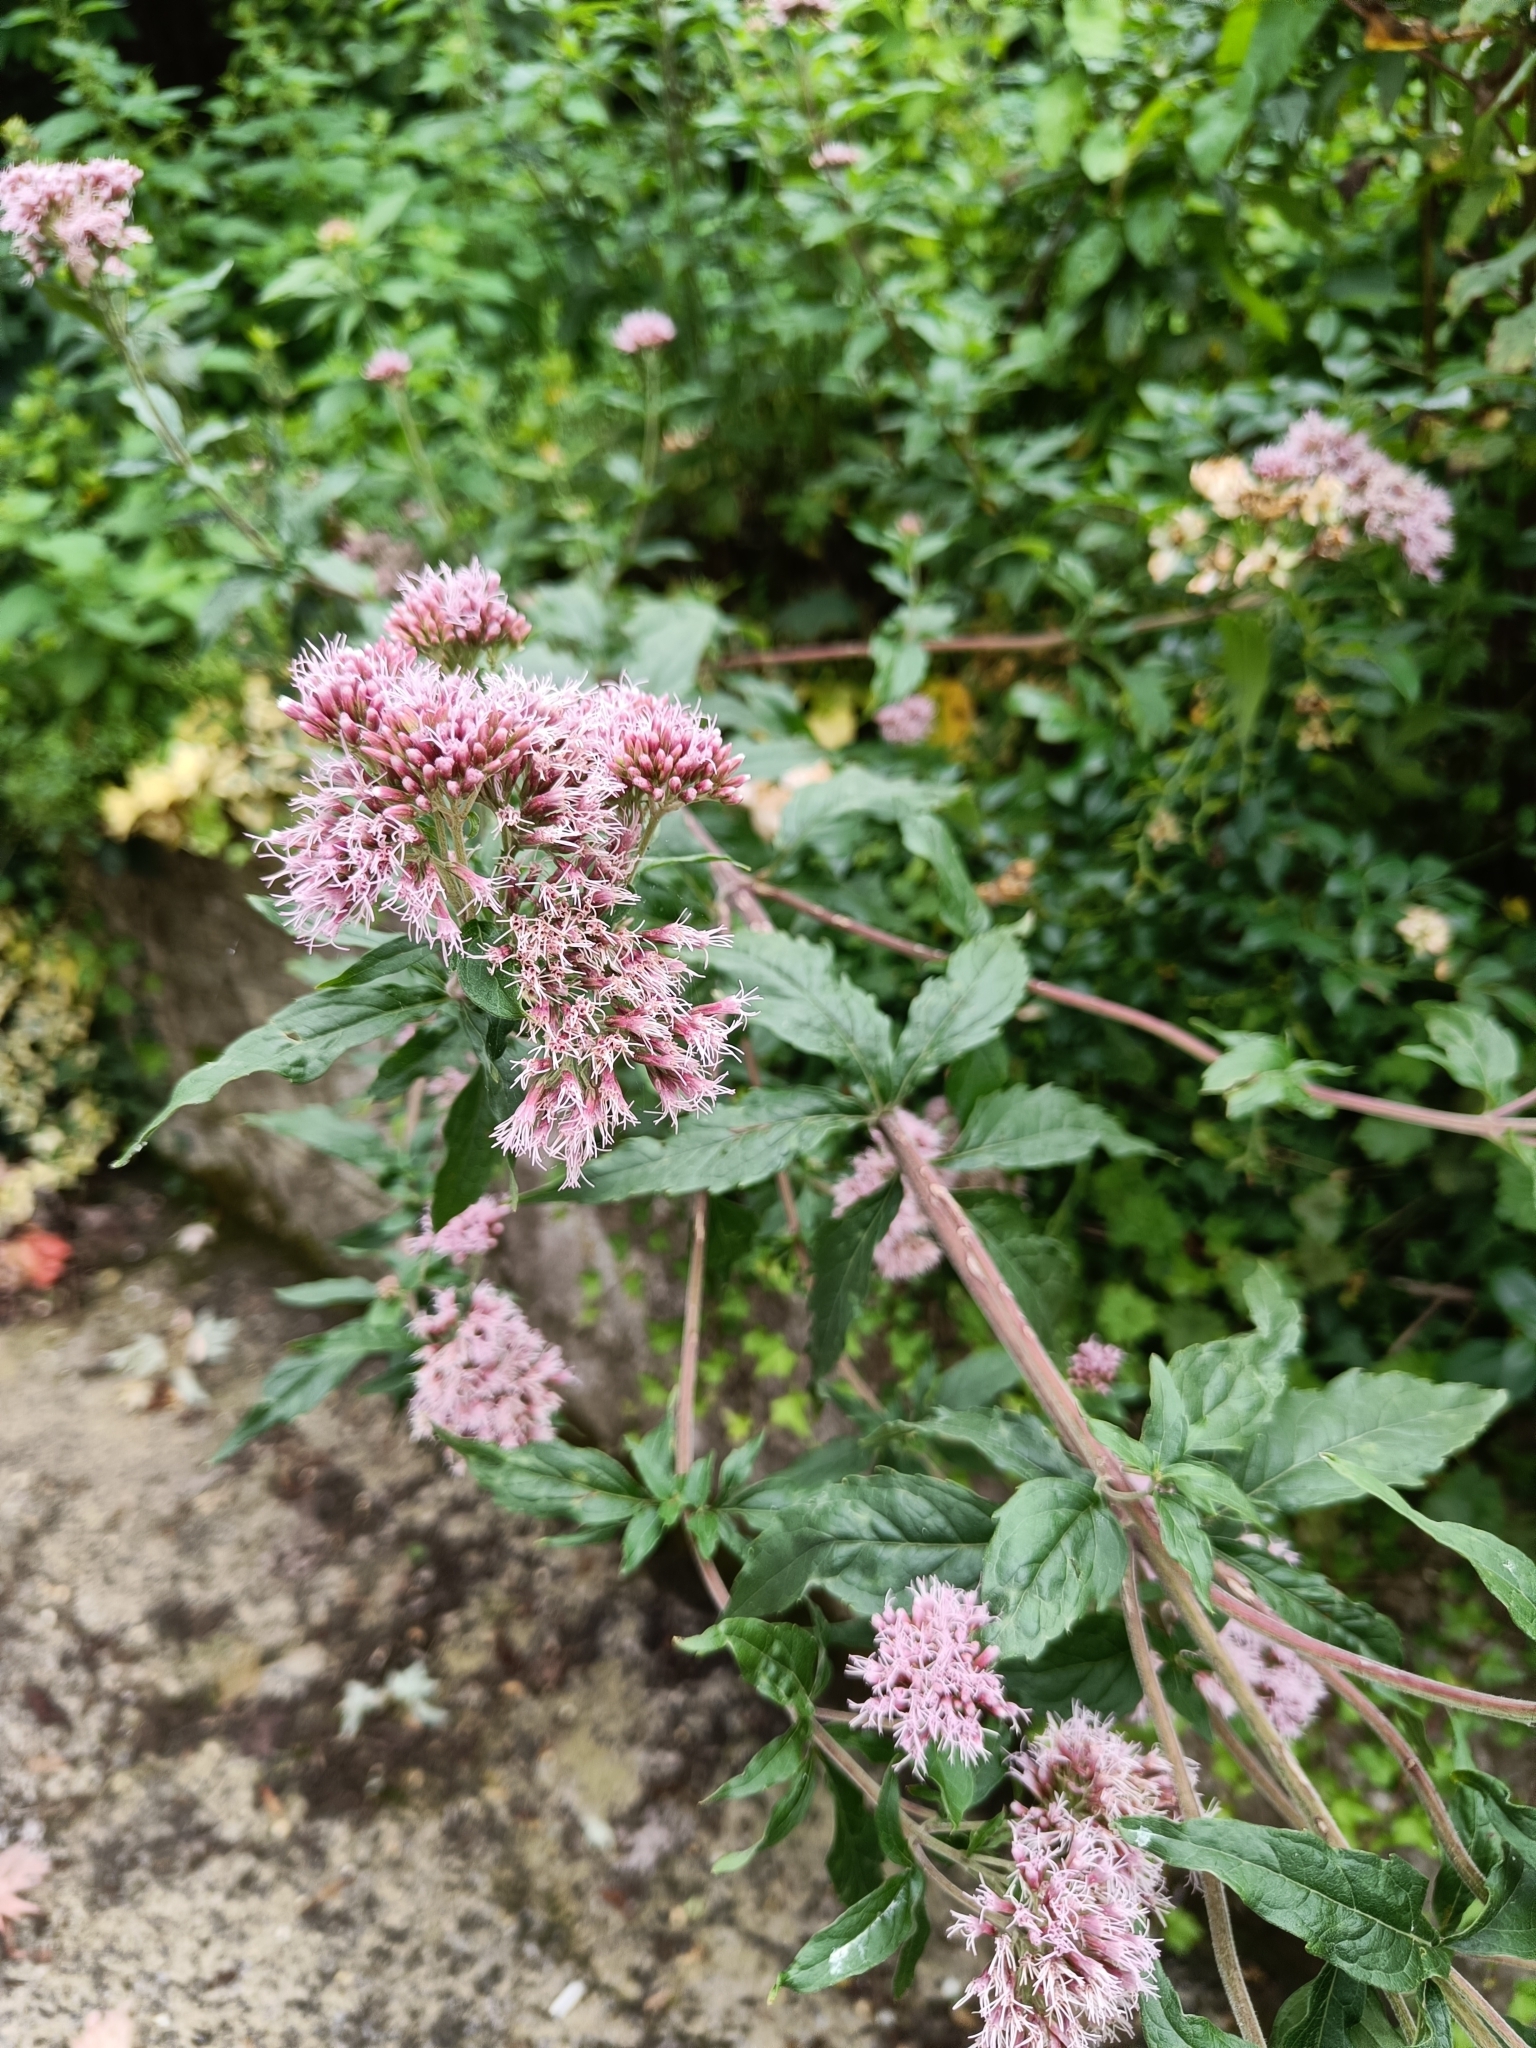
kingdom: Plantae
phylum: Tracheophyta
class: Magnoliopsida
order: Asterales
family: Asteraceae
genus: Eupatorium
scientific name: Eupatorium cannabinum
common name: Hemp-agrimony
